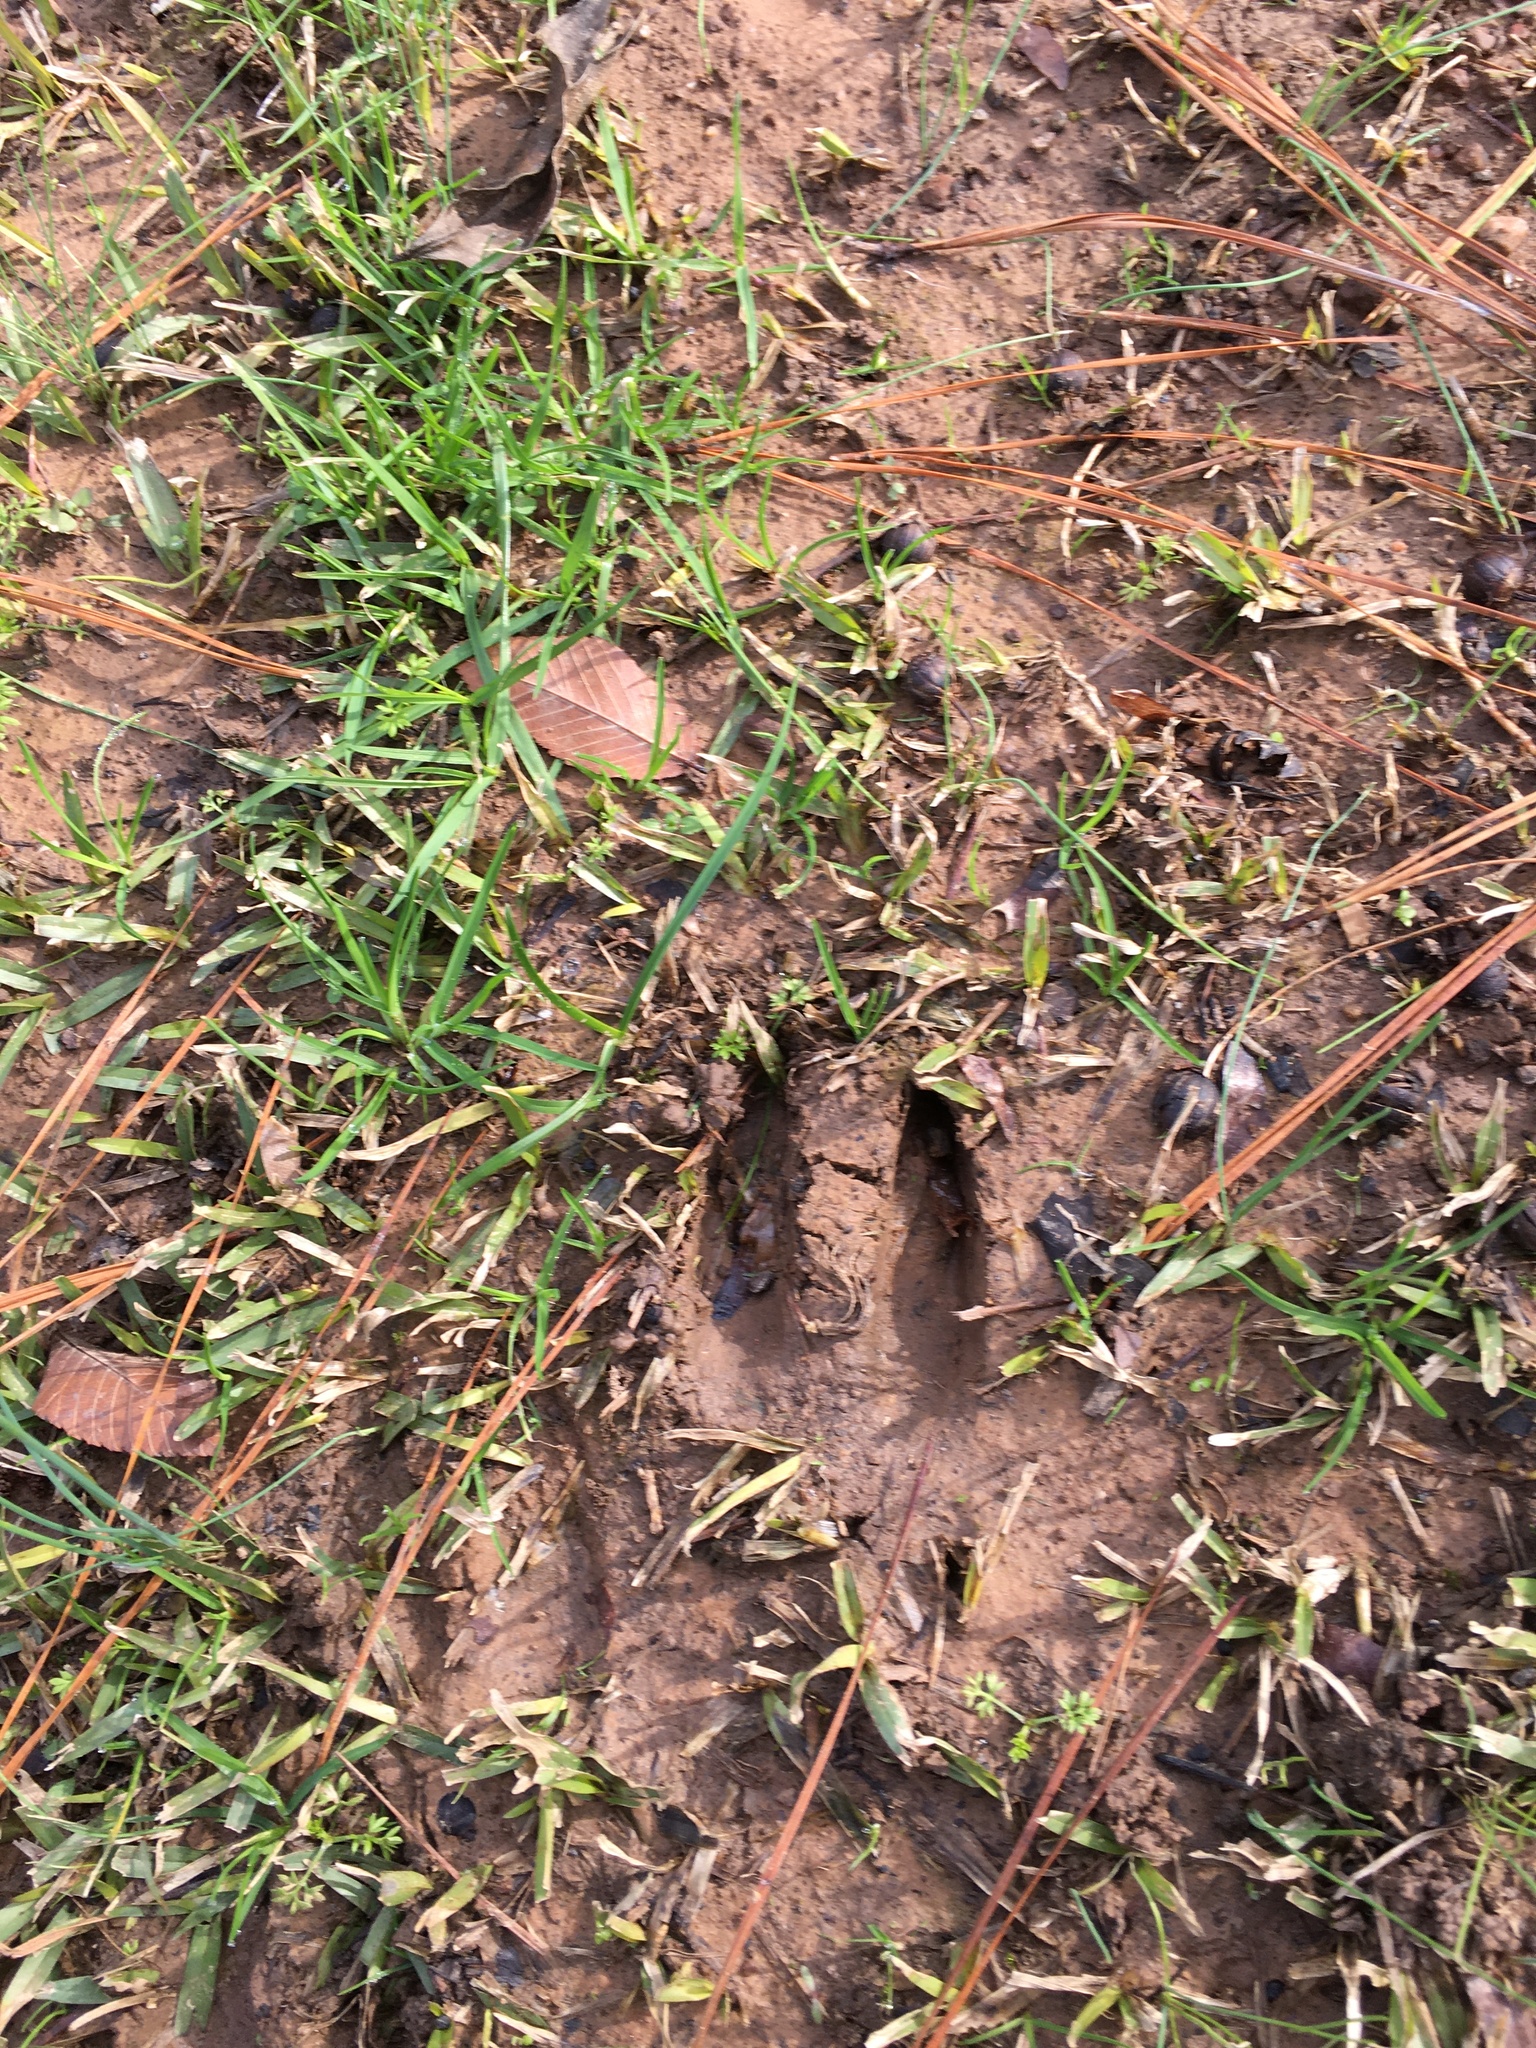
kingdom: Animalia
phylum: Chordata
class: Mammalia
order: Artiodactyla
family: Cervidae
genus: Odocoileus
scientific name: Odocoileus virginianus
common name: White-tailed deer
